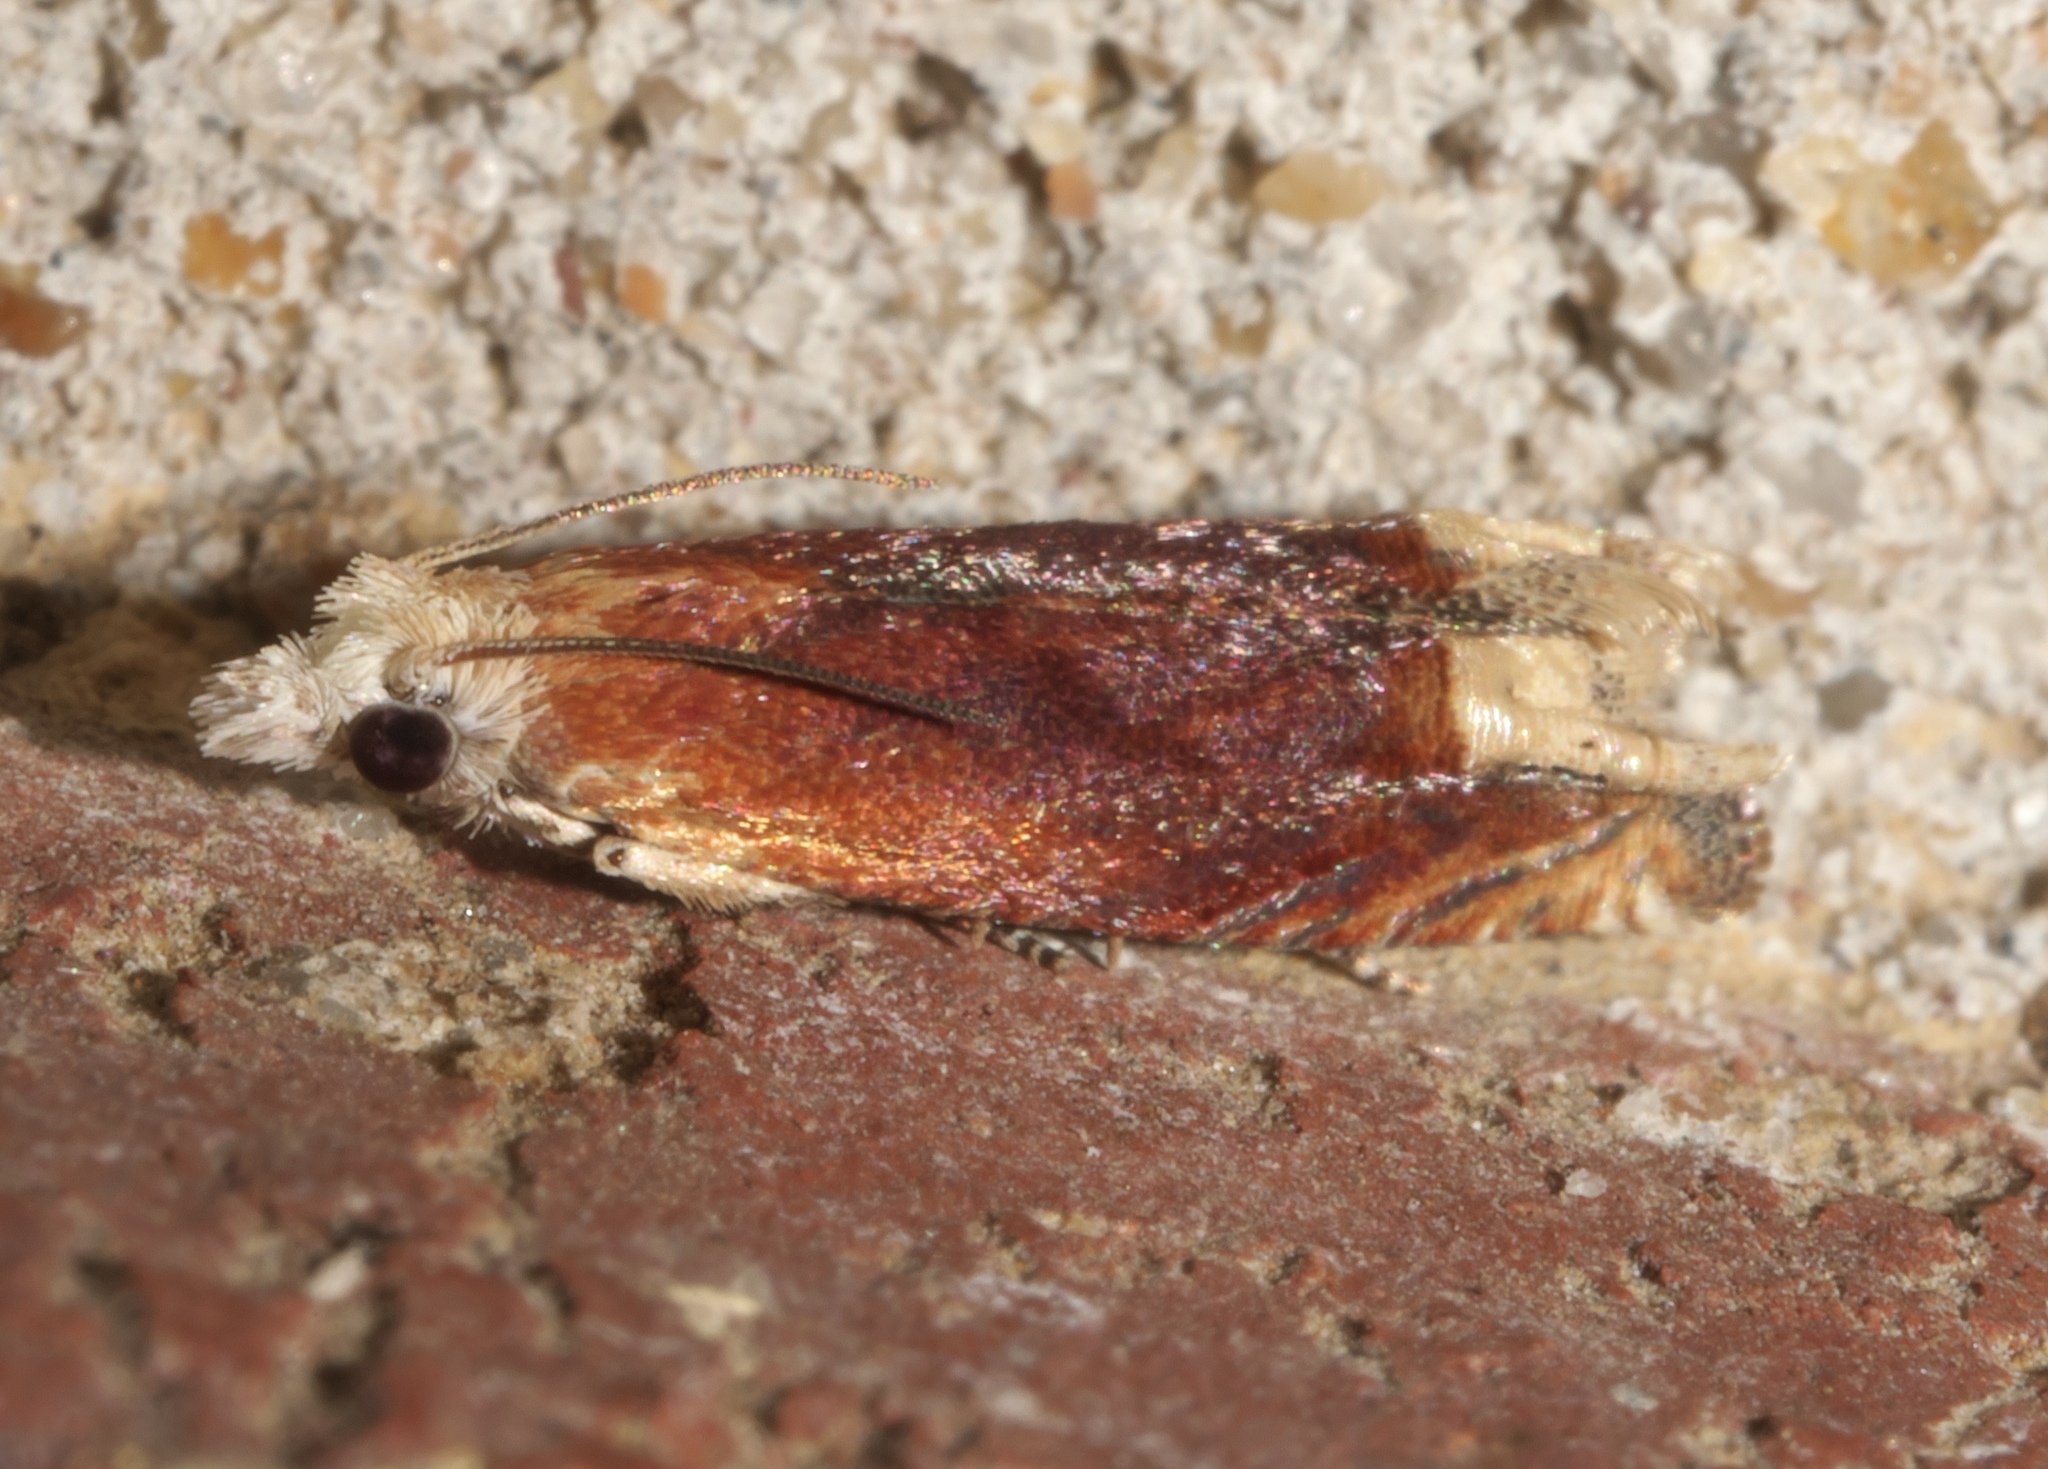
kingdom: Animalia
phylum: Arthropoda
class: Insecta
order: Lepidoptera
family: Tortricidae
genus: Eucosma
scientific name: Eucosma raracana
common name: Reddish eucosma moth
